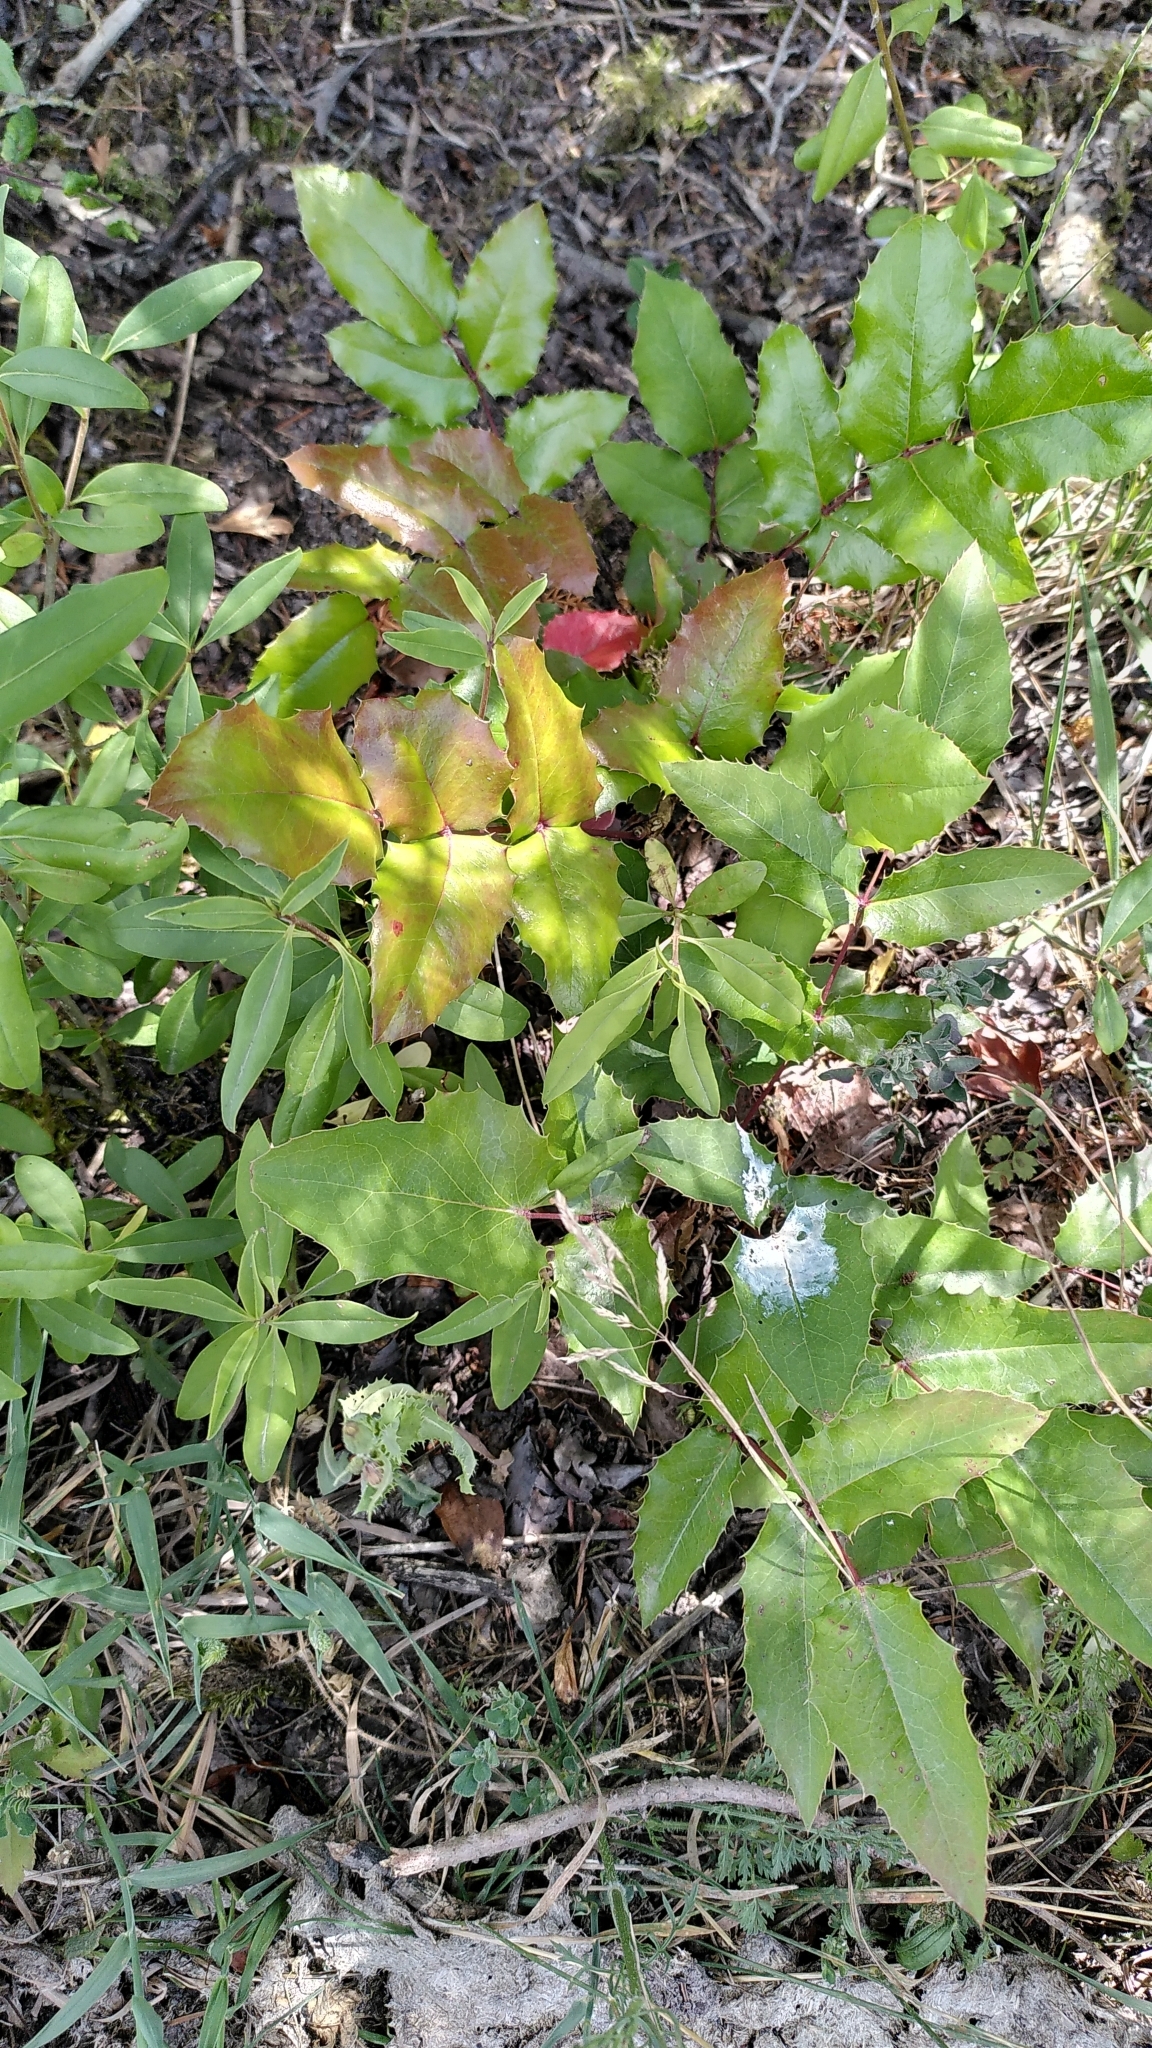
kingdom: Plantae
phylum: Tracheophyta
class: Magnoliopsida
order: Ranunculales
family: Berberidaceae
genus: Mahonia
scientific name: Mahonia aquifolium
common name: Oregon-grape
